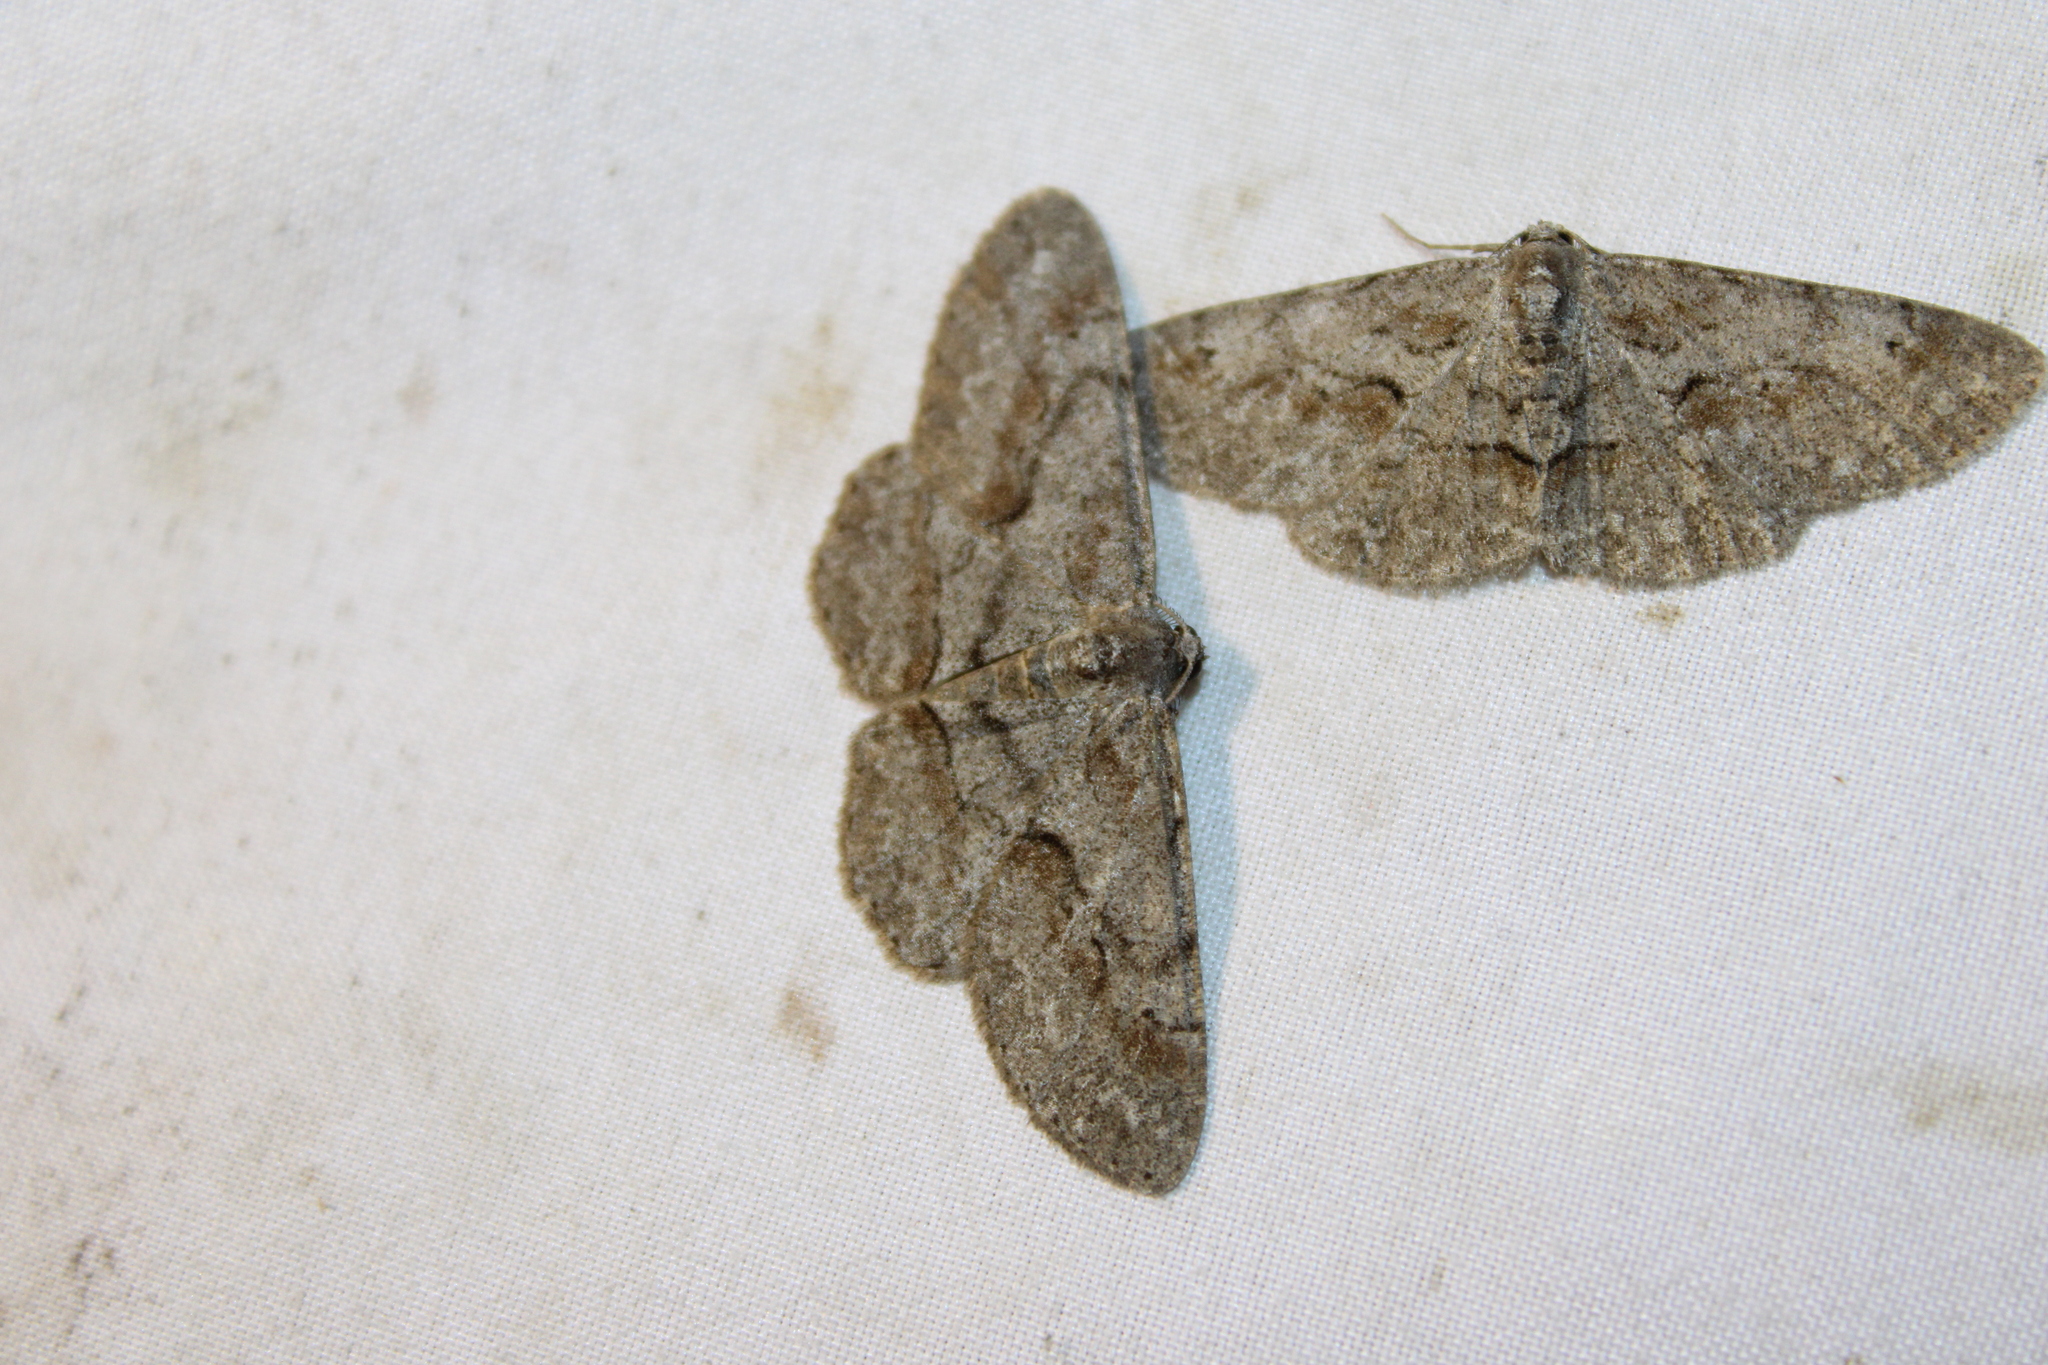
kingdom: Animalia
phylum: Arthropoda
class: Insecta
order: Lepidoptera
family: Geometridae
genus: Iridopsis
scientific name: Iridopsis vellivolata
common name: Large purplish gray
